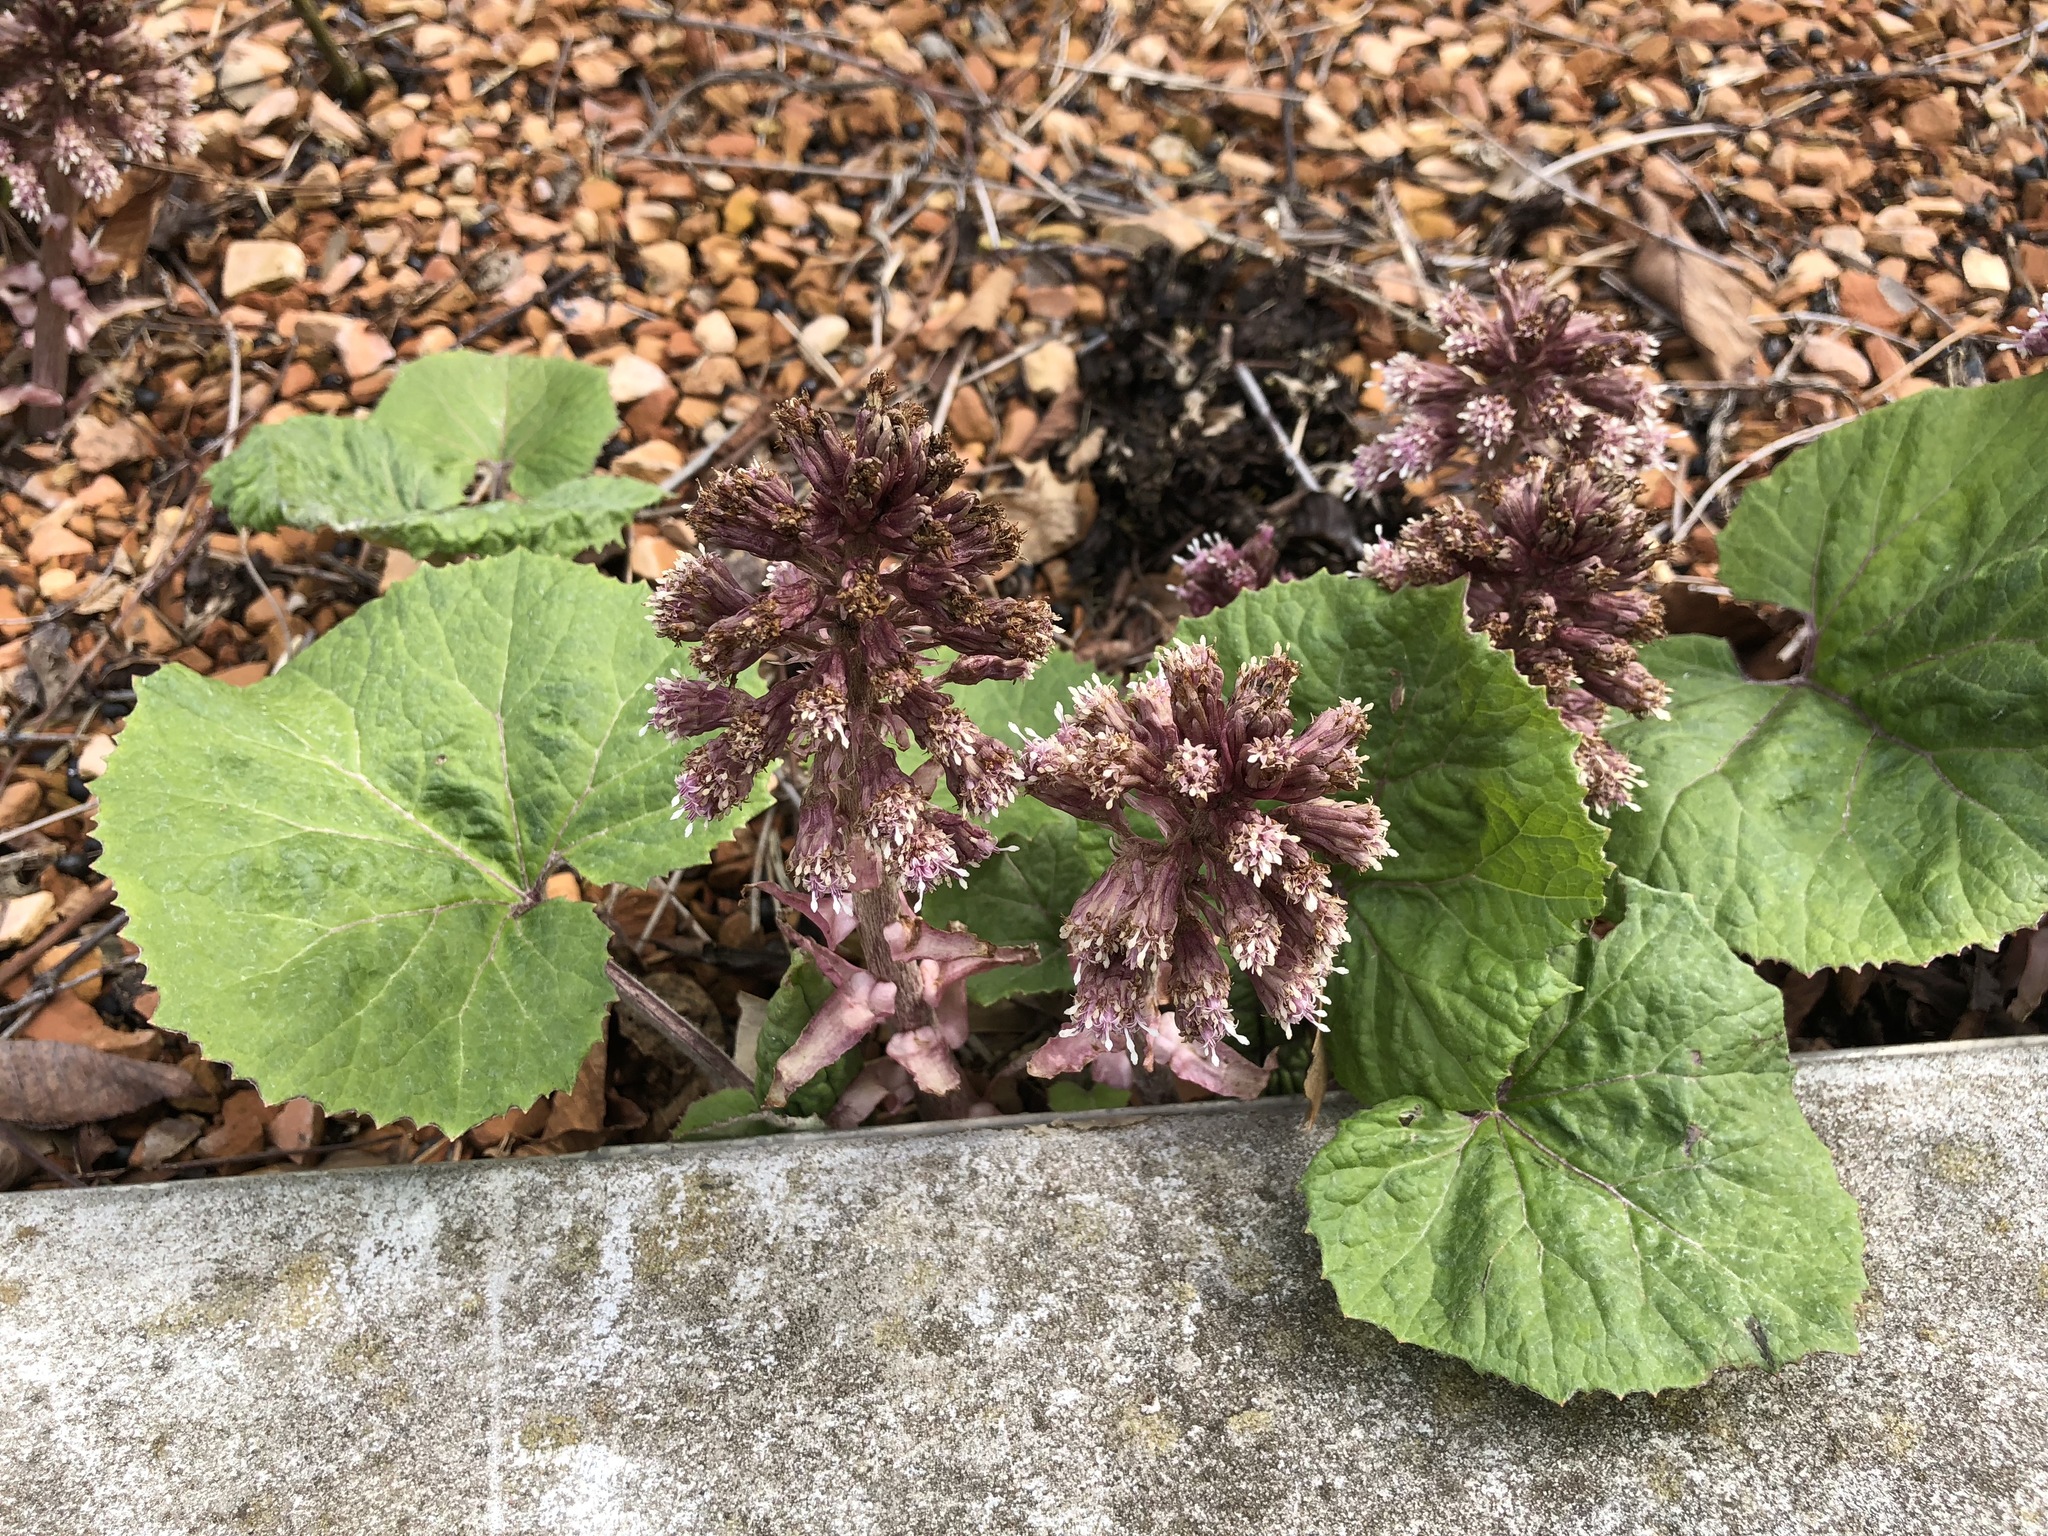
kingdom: Plantae
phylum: Tracheophyta
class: Magnoliopsida
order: Asterales
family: Asteraceae
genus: Petasites
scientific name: Petasites hybridus
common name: Butterbur
